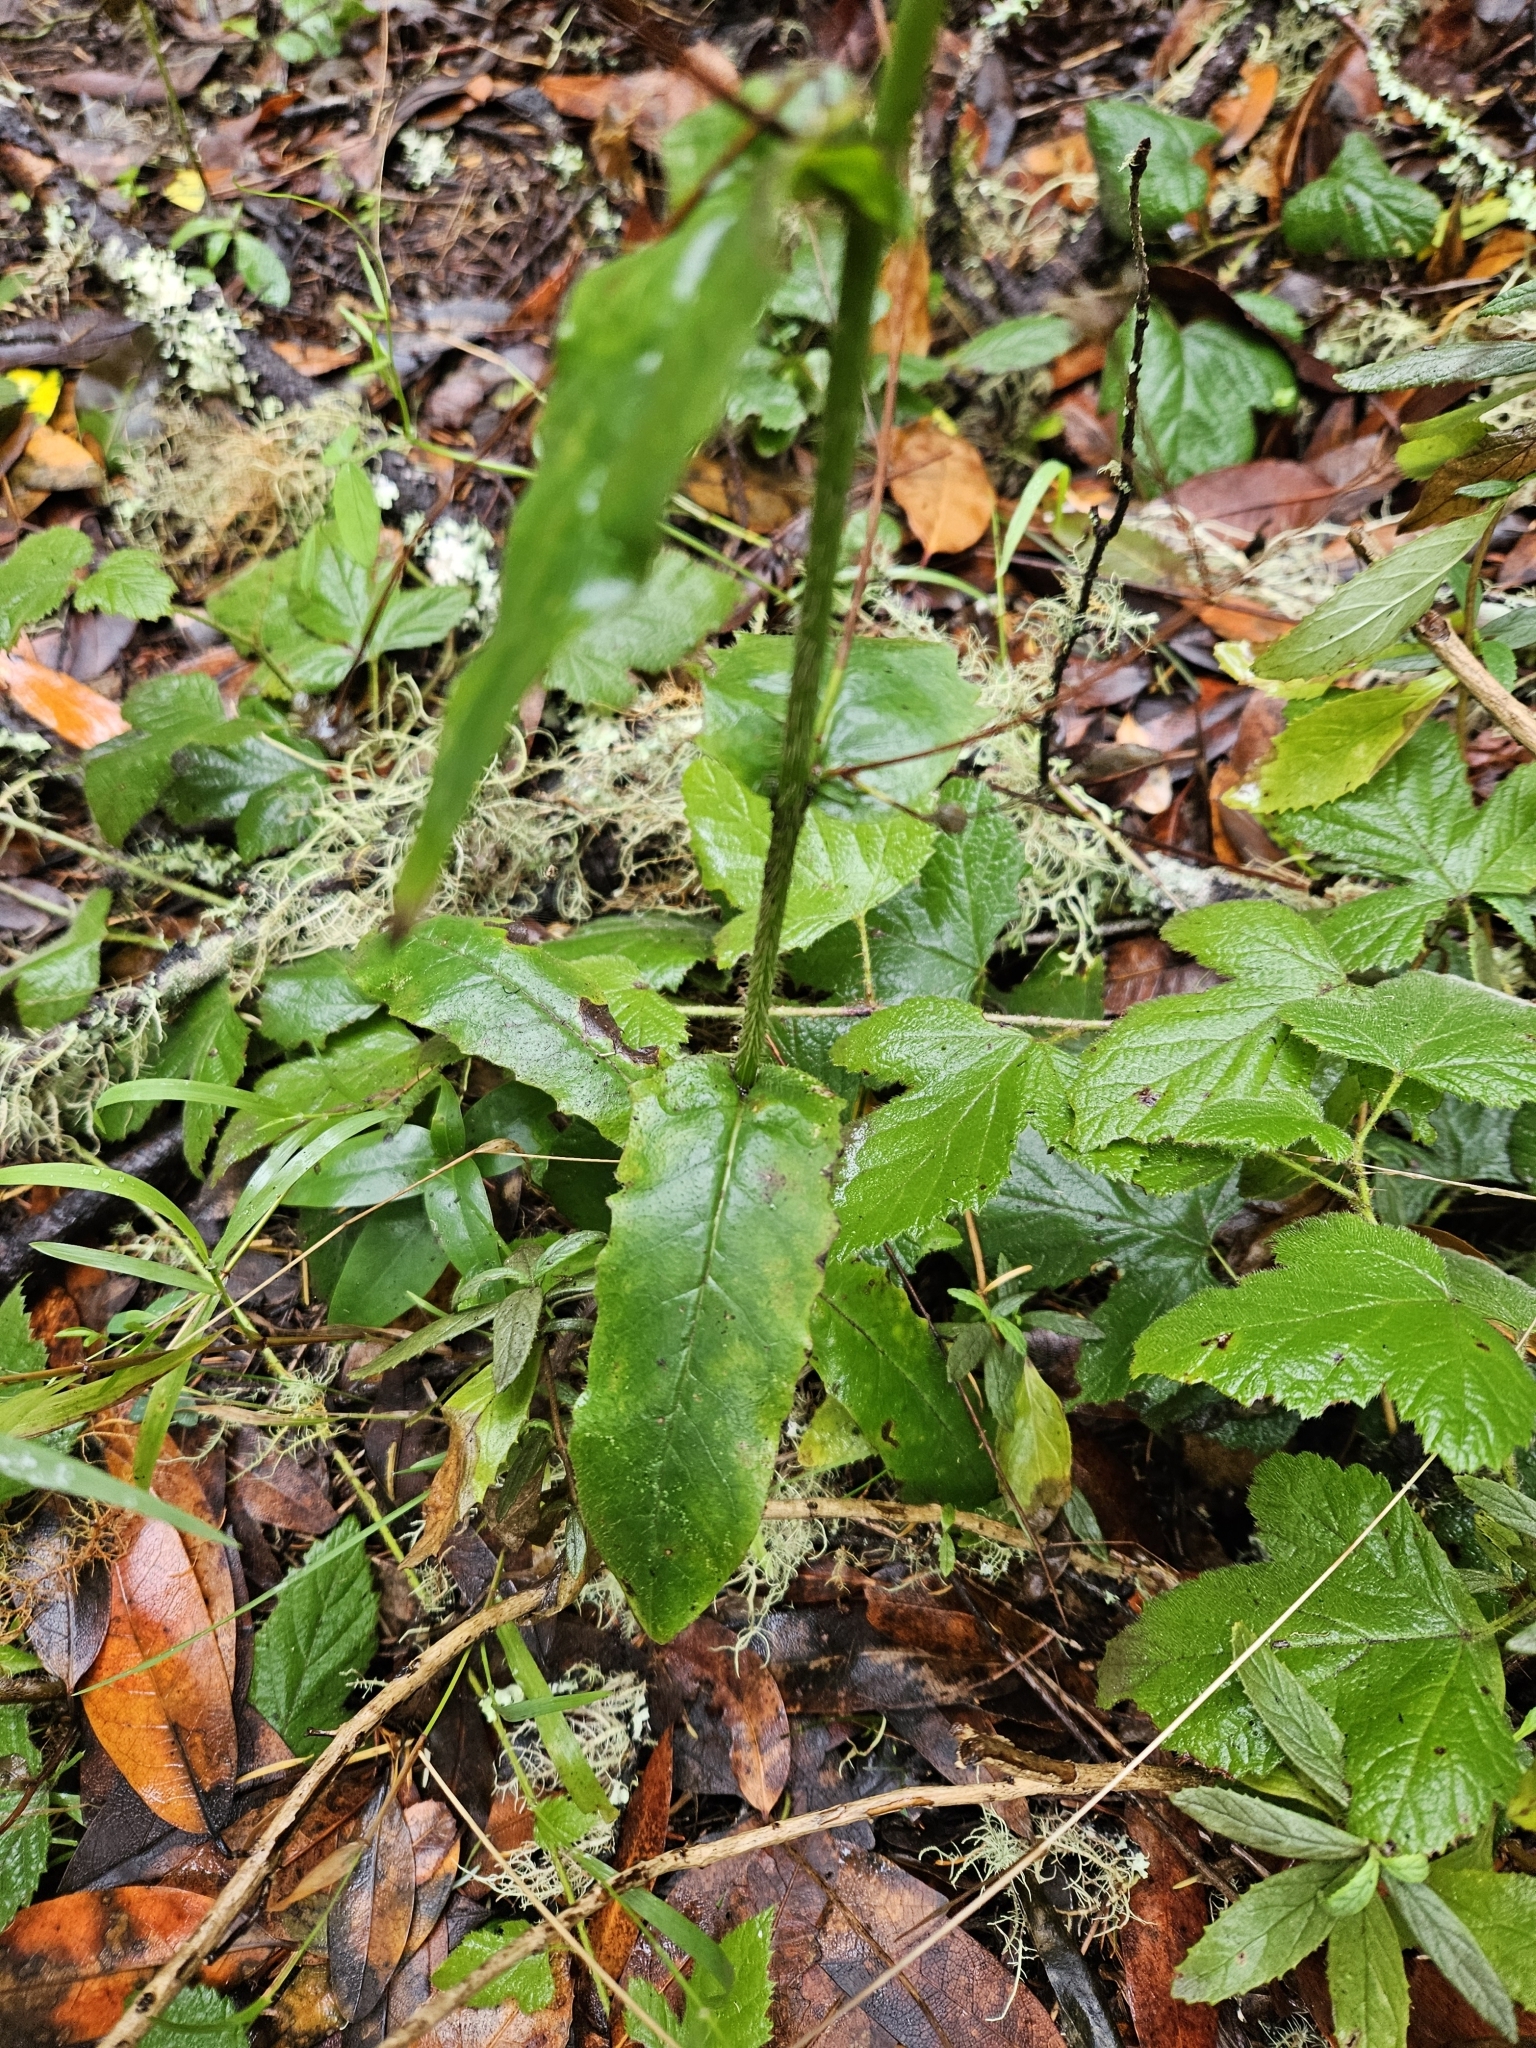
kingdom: Plantae
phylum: Tracheophyta
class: Magnoliopsida
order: Asterales
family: Asteraceae
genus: Hieracium
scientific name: Hieracium albiflorum
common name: White hawkweed
